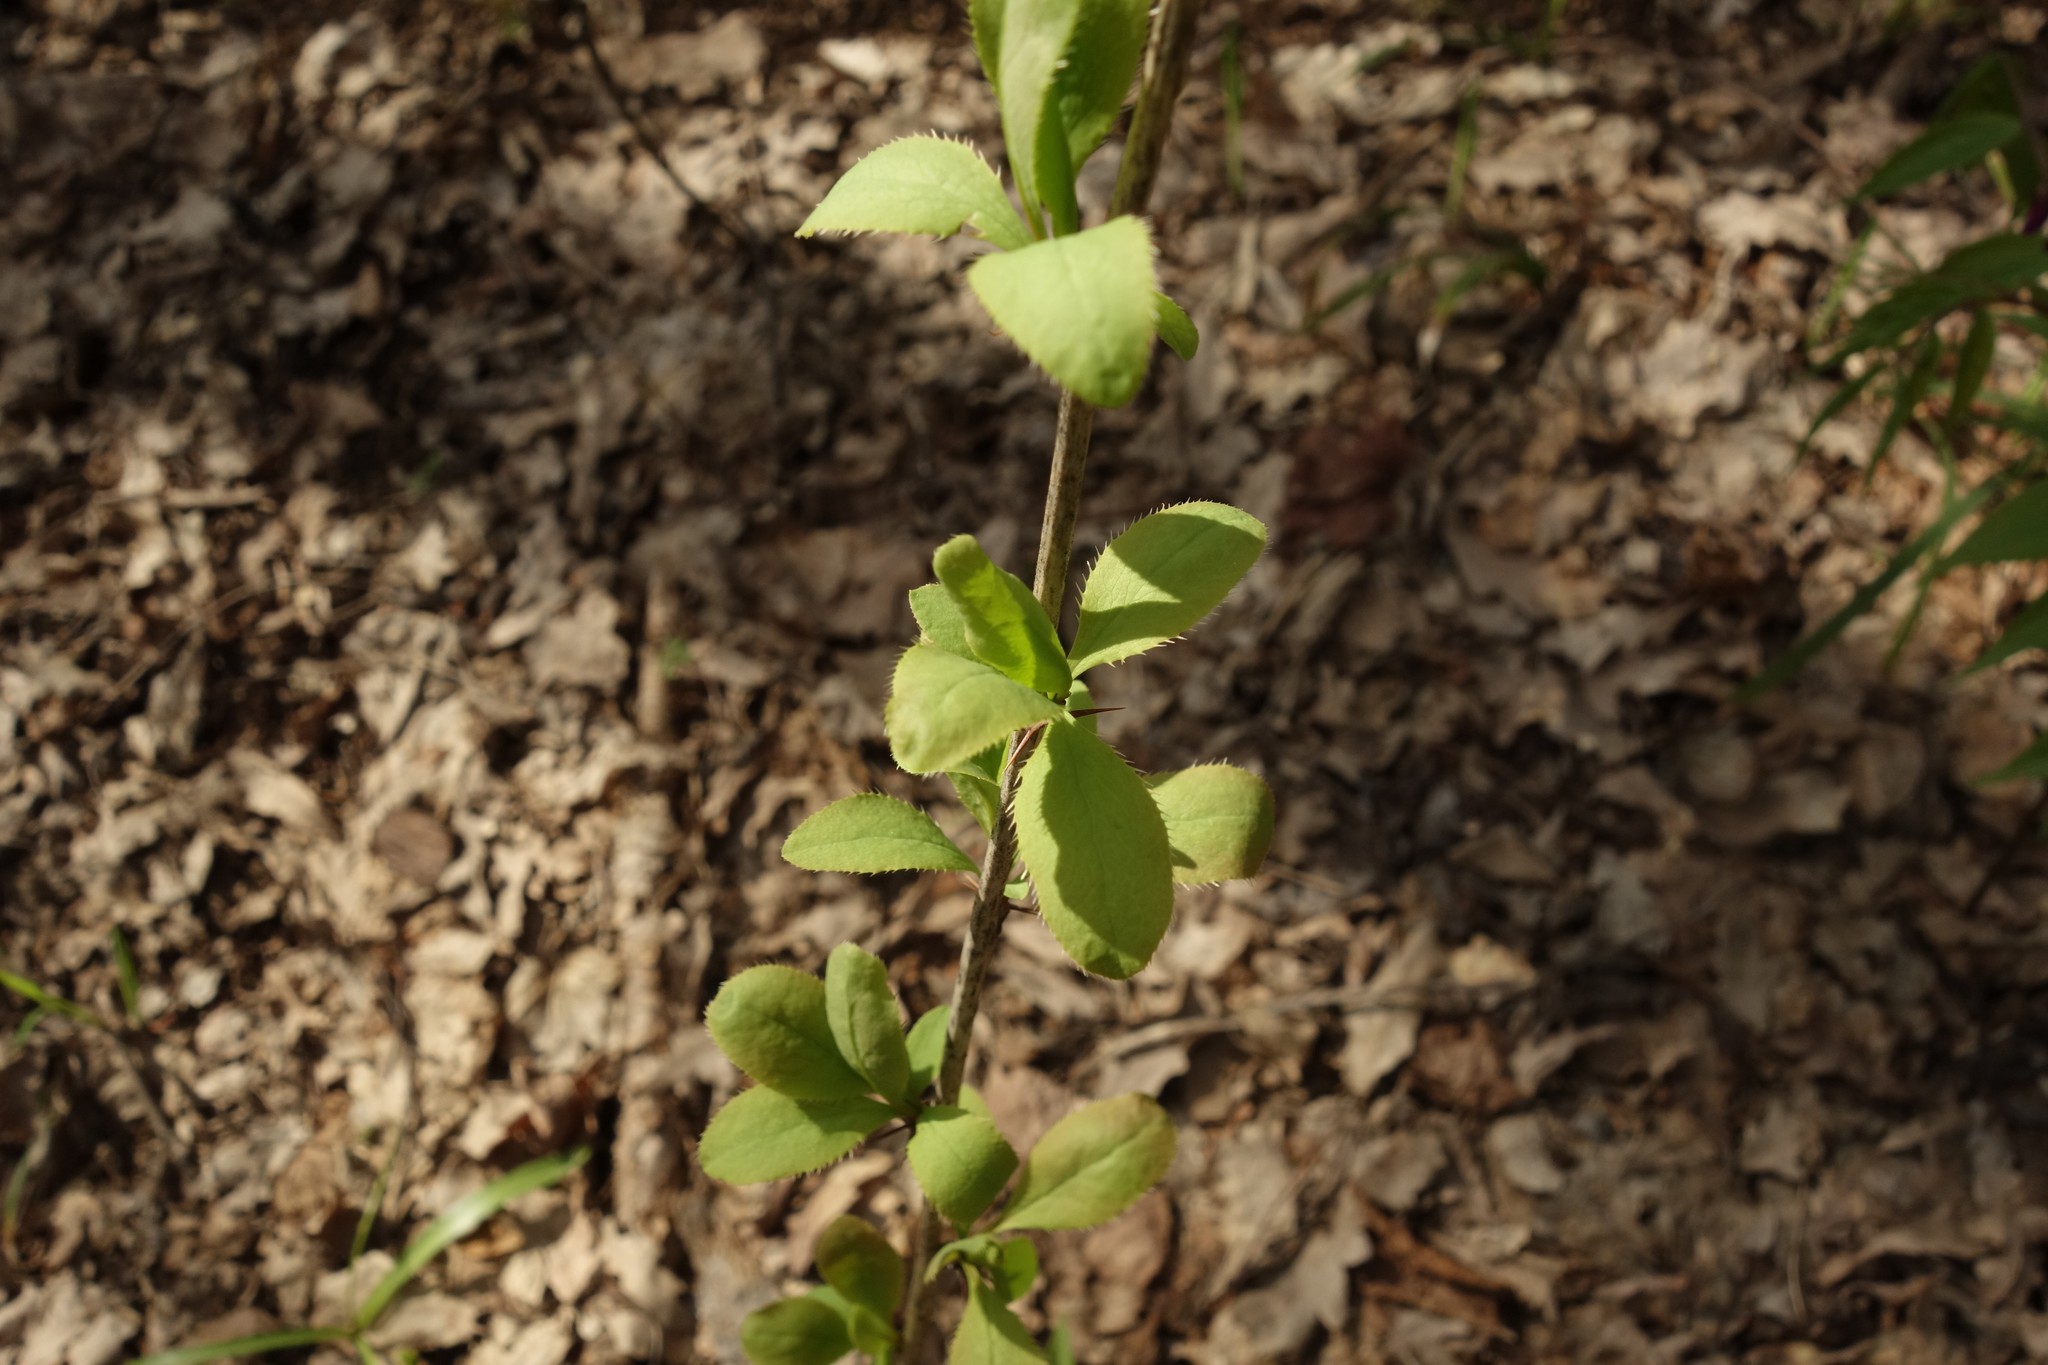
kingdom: Plantae
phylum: Tracheophyta
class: Magnoliopsida
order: Ranunculales
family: Berberidaceae
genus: Berberis
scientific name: Berberis vulgaris
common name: Barberry
